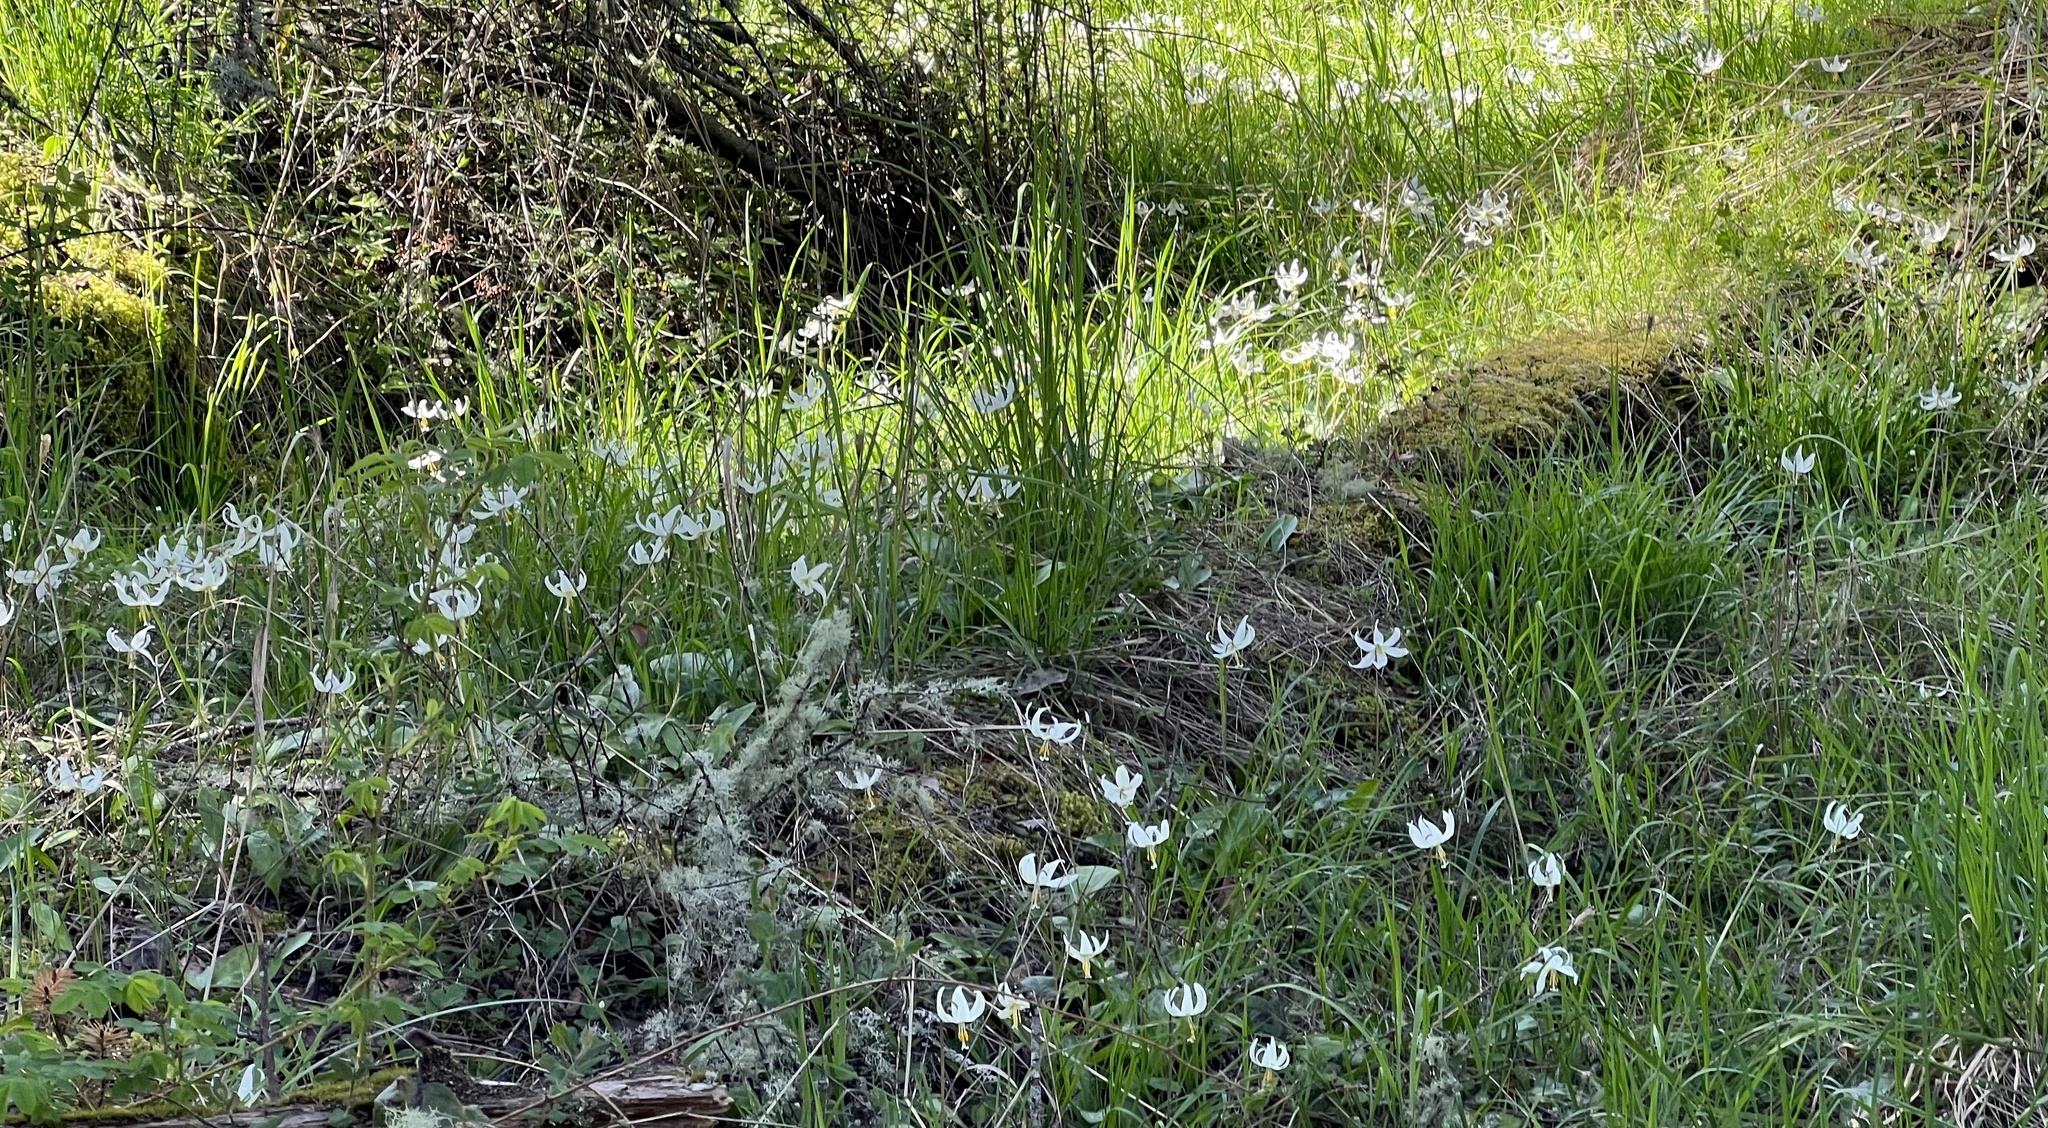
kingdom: Plantae
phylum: Tracheophyta
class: Liliopsida
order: Liliales
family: Liliaceae
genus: Erythronium
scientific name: Erythronium oregonum
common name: Giant adder's-tongue
